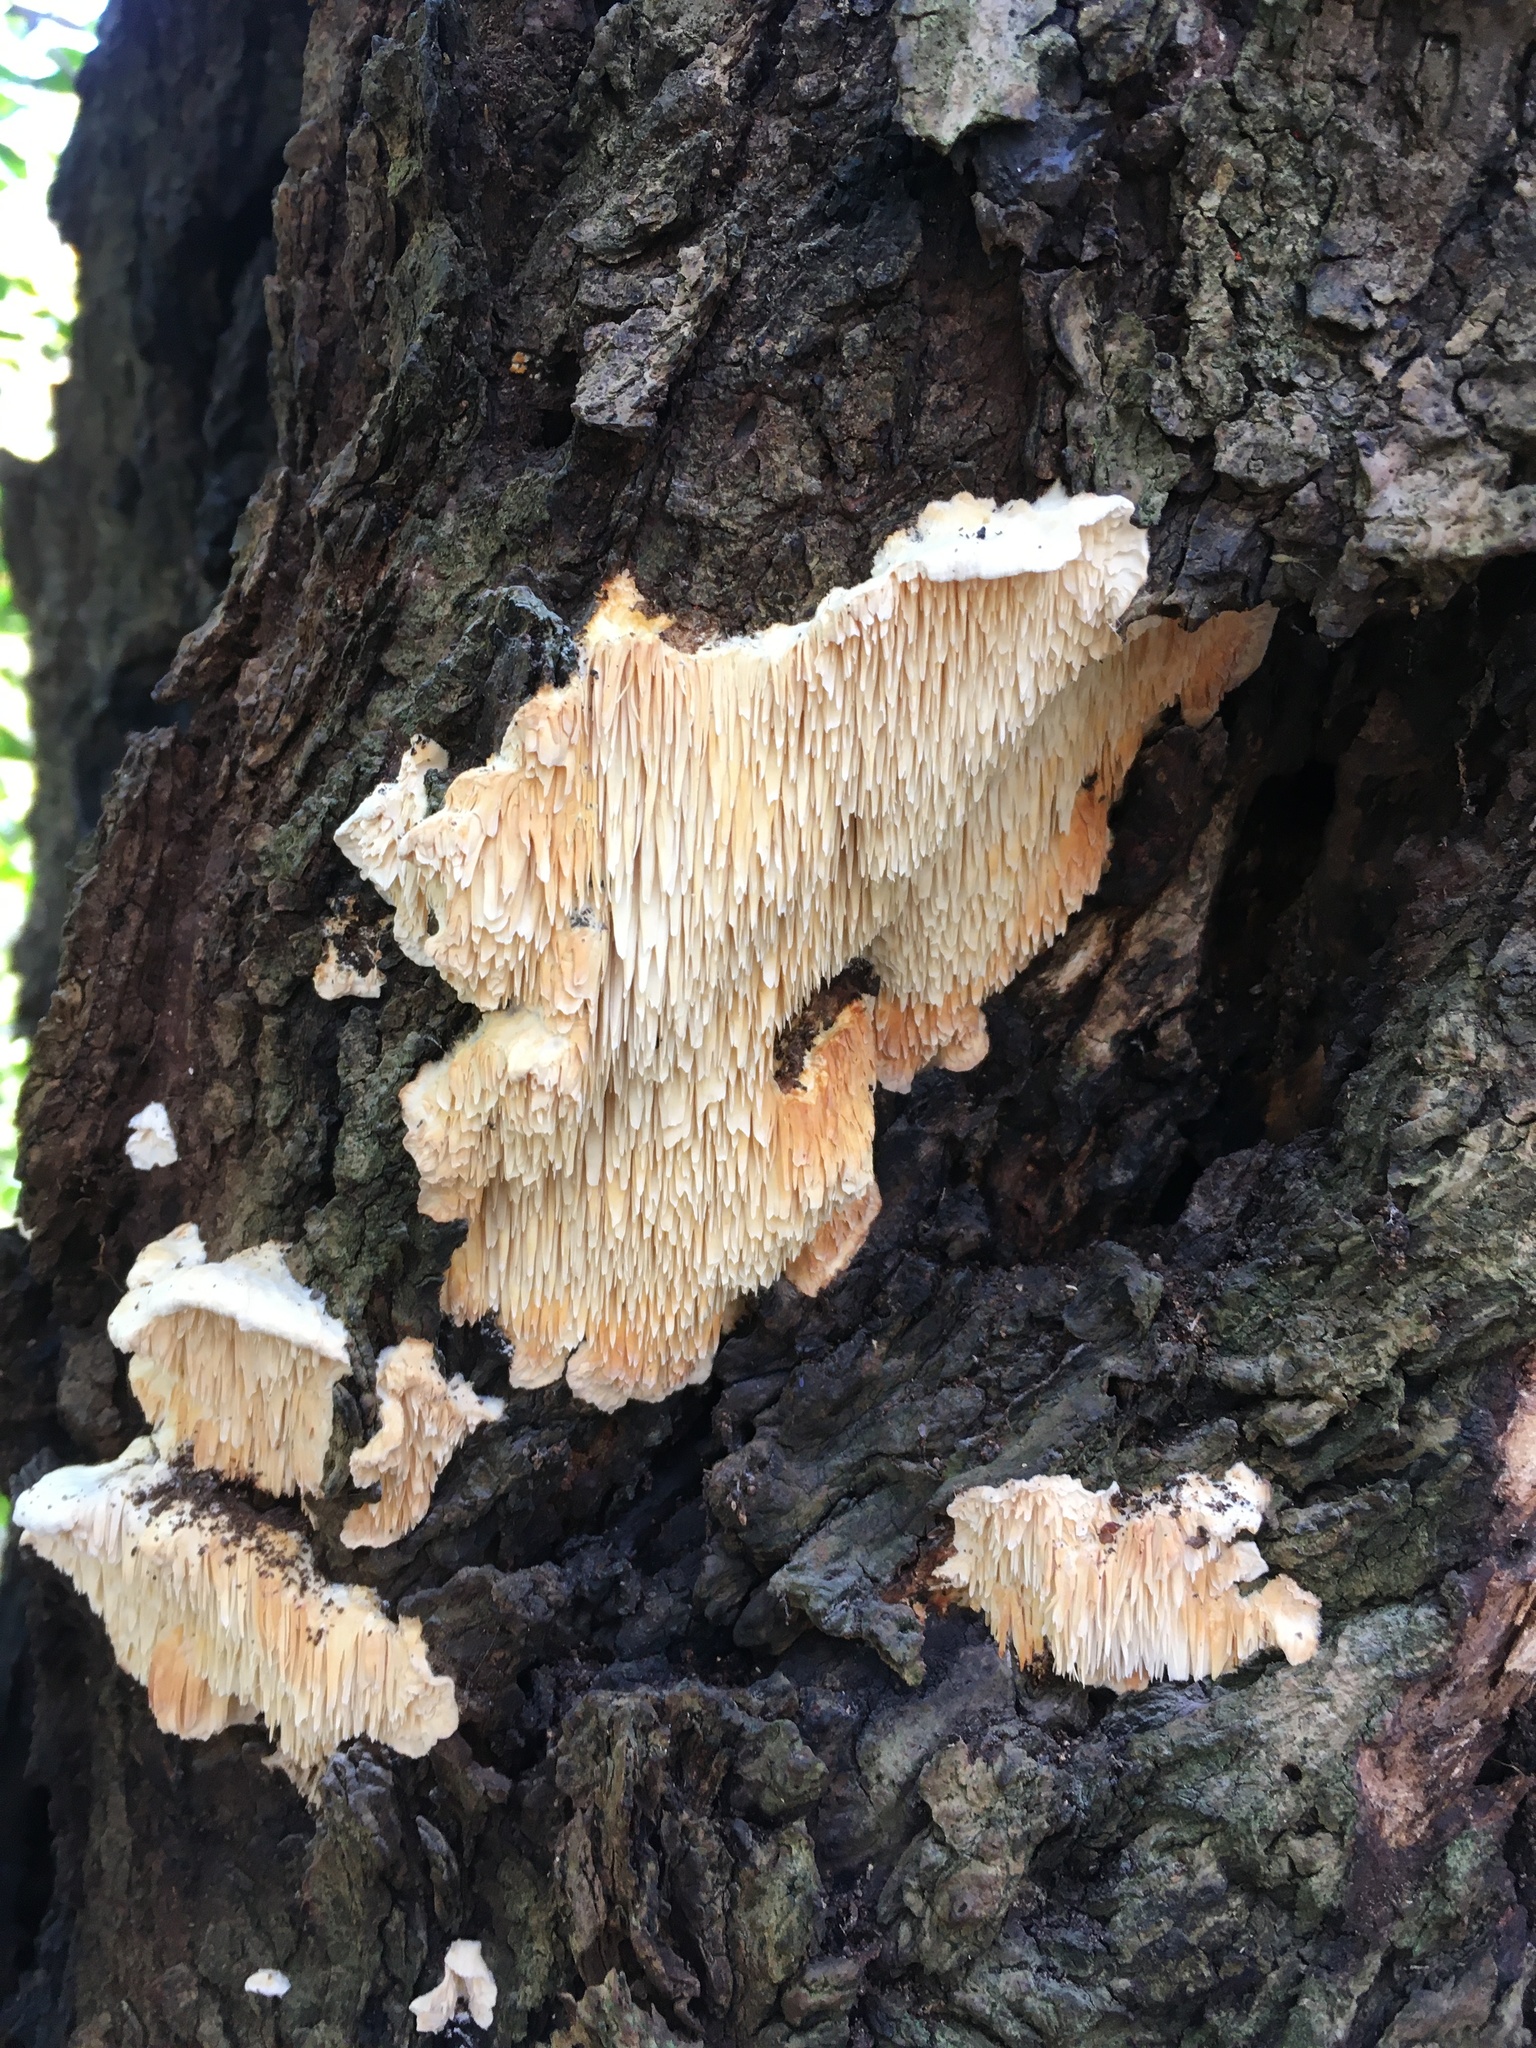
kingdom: Fungi
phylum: Basidiomycota
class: Agaricomycetes
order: Polyporales
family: Meruliaceae
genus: Irpiciporus
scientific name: Irpiciporus pachyodon
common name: Marshmallow polypore
